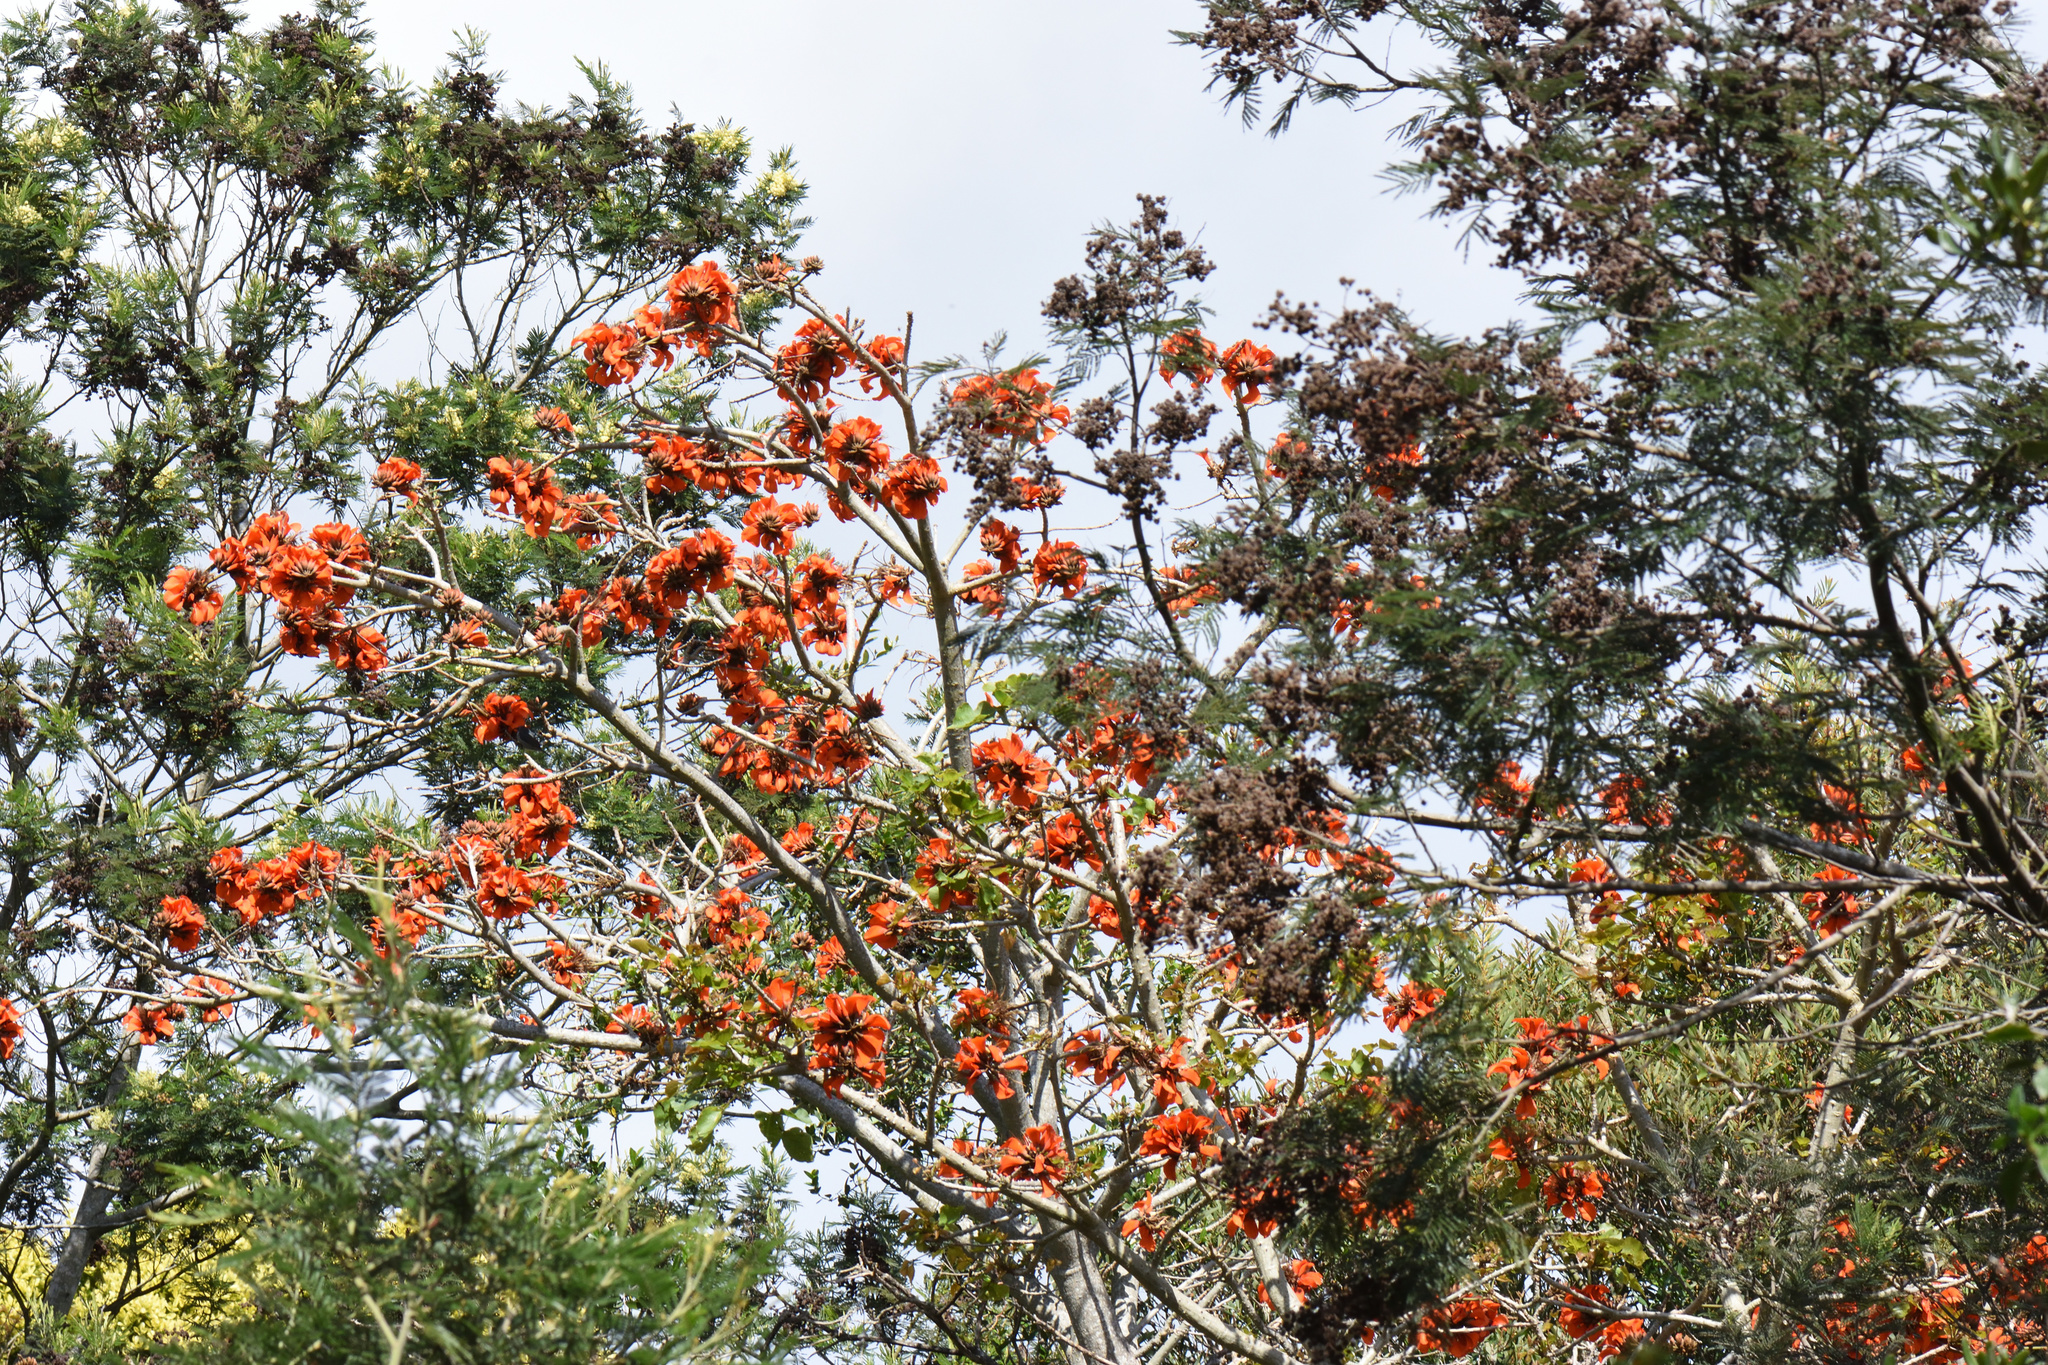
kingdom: Plantae
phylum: Tracheophyta
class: Magnoliopsida
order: Fabales
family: Fabaceae
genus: Erythrina
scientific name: Erythrina caffra
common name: Coast coral tree
